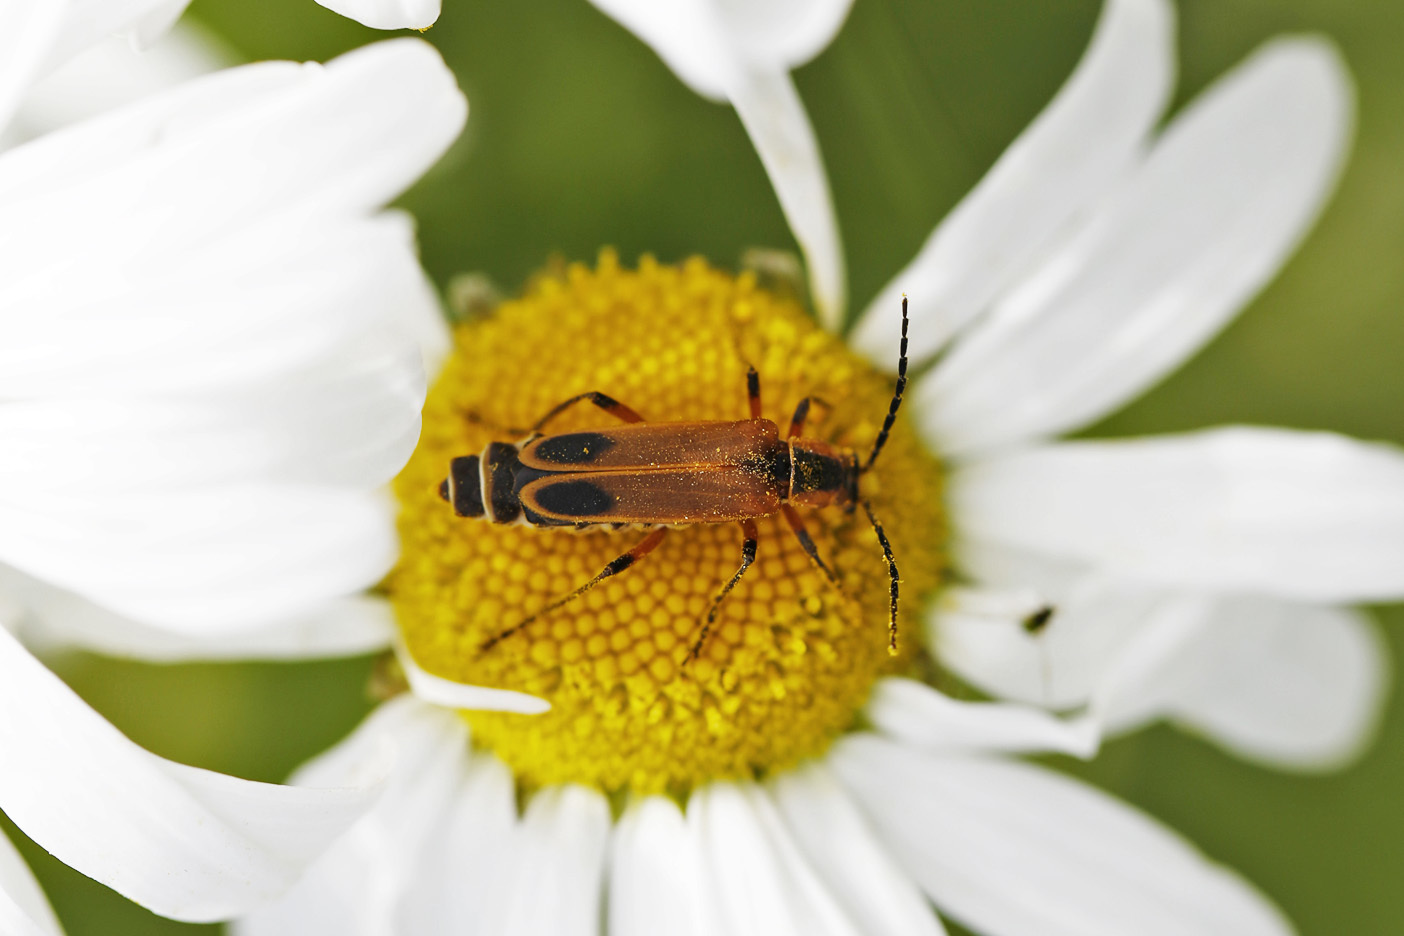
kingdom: Animalia
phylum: Arthropoda
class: Insecta
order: Coleoptera
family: Cantharidae
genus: Chauliognathus
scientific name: Chauliognathus marginatus
